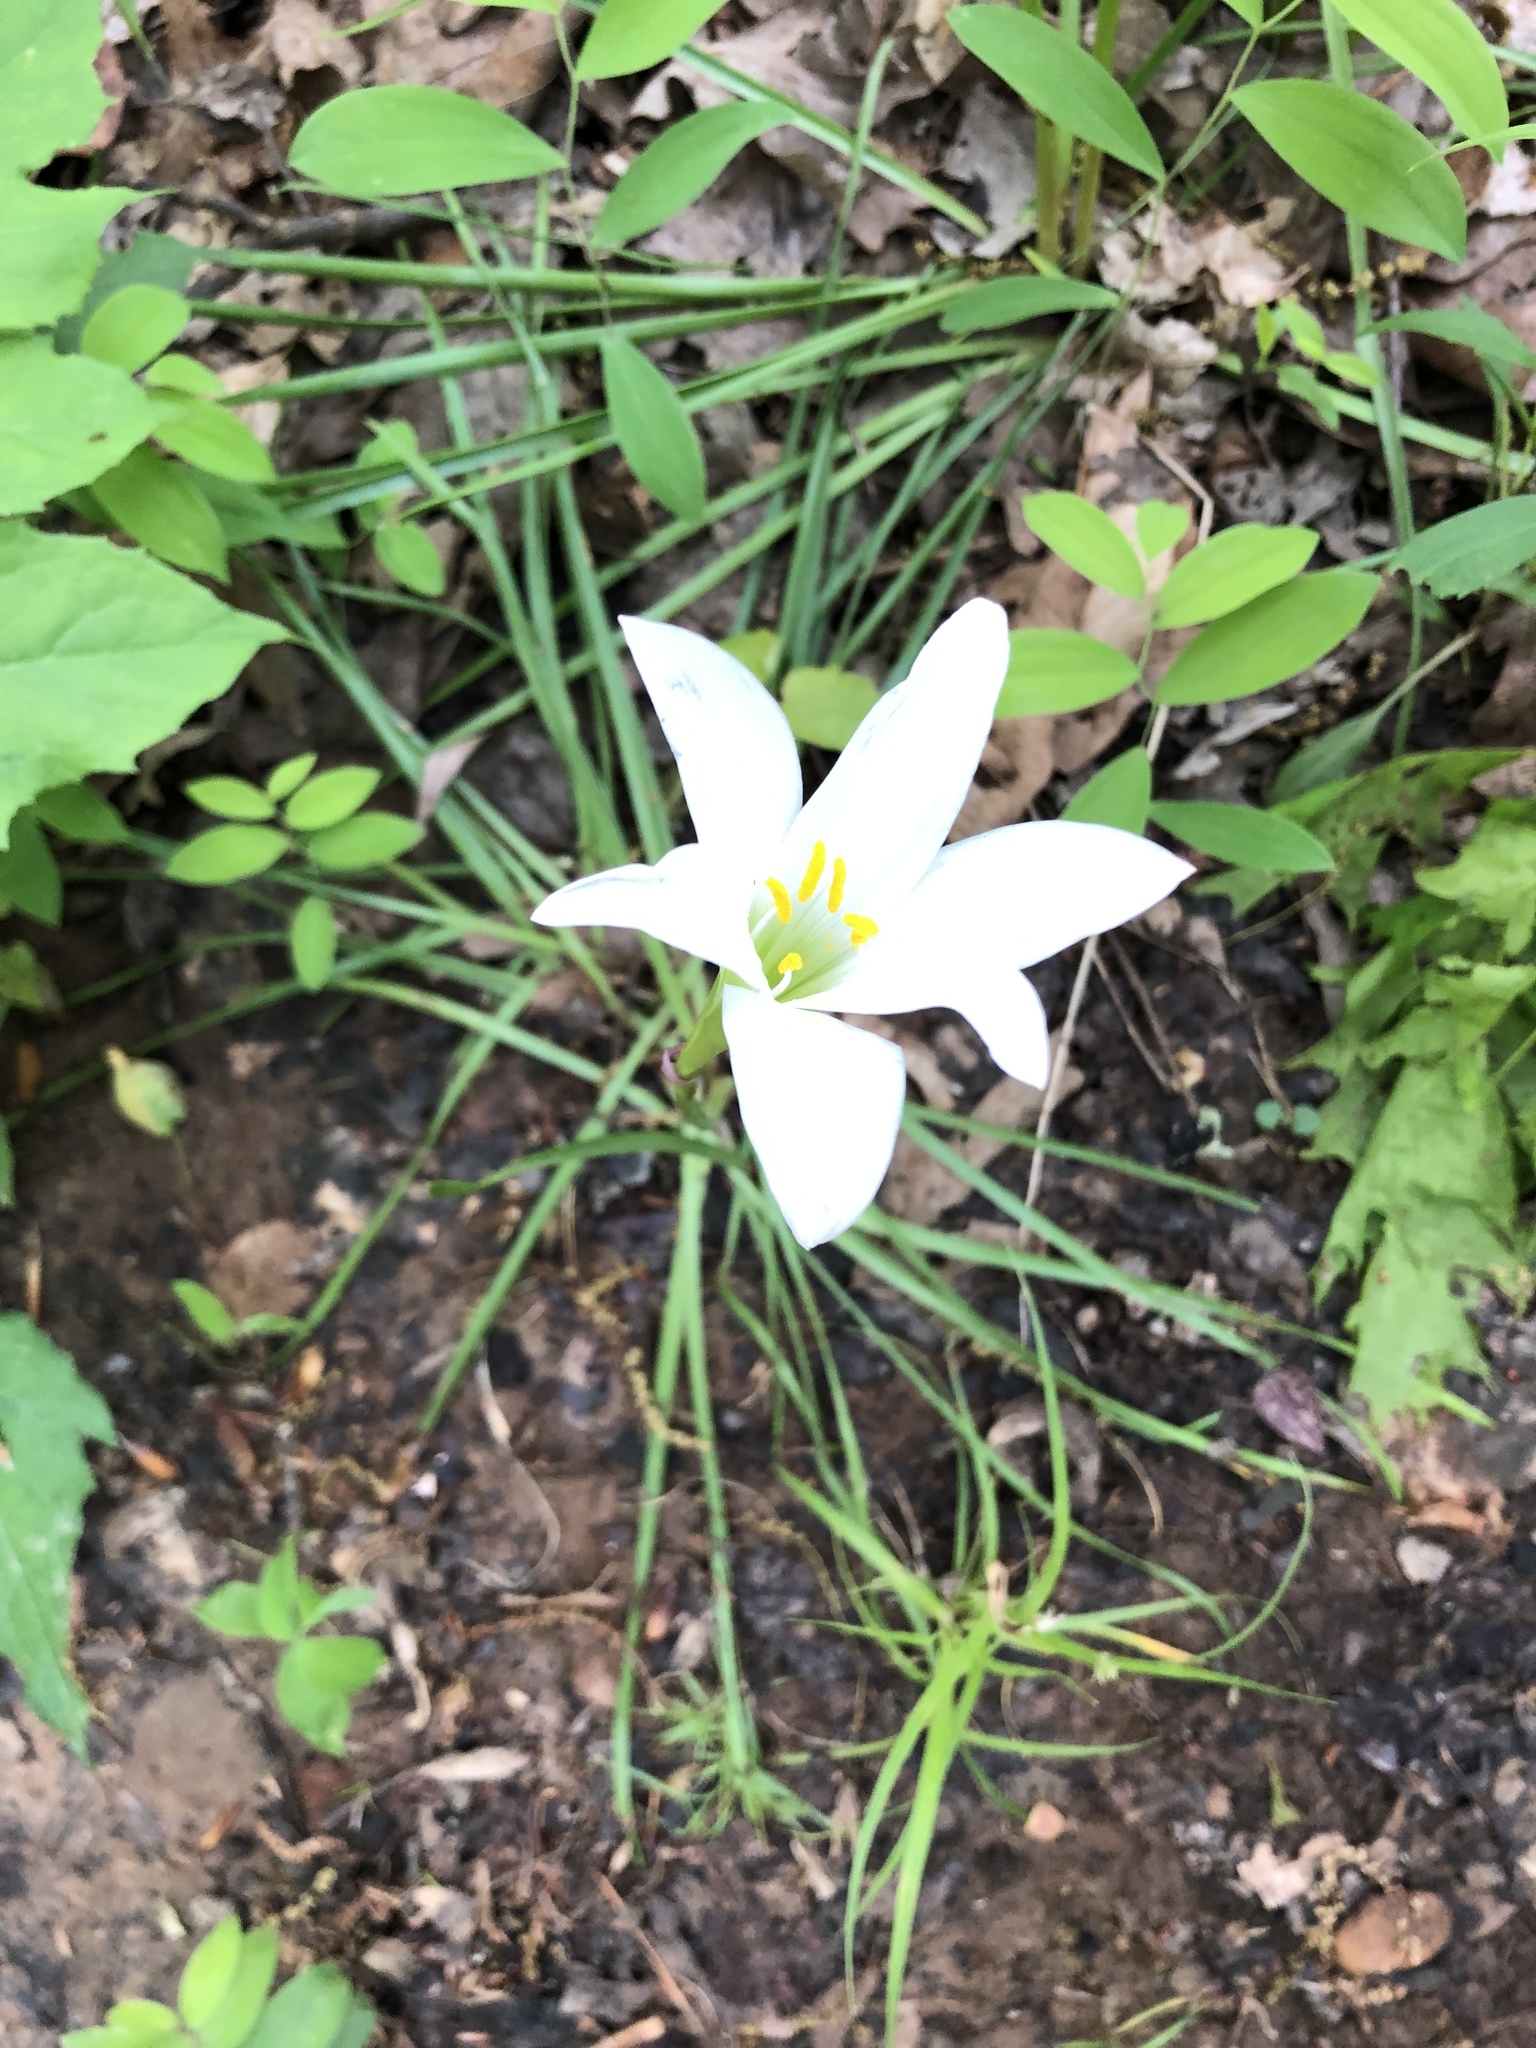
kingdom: Plantae
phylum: Tracheophyta
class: Liliopsida
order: Asparagales
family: Amaryllidaceae
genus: Zephyranthes
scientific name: Zephyranthes atamasco
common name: Atamasco lily
